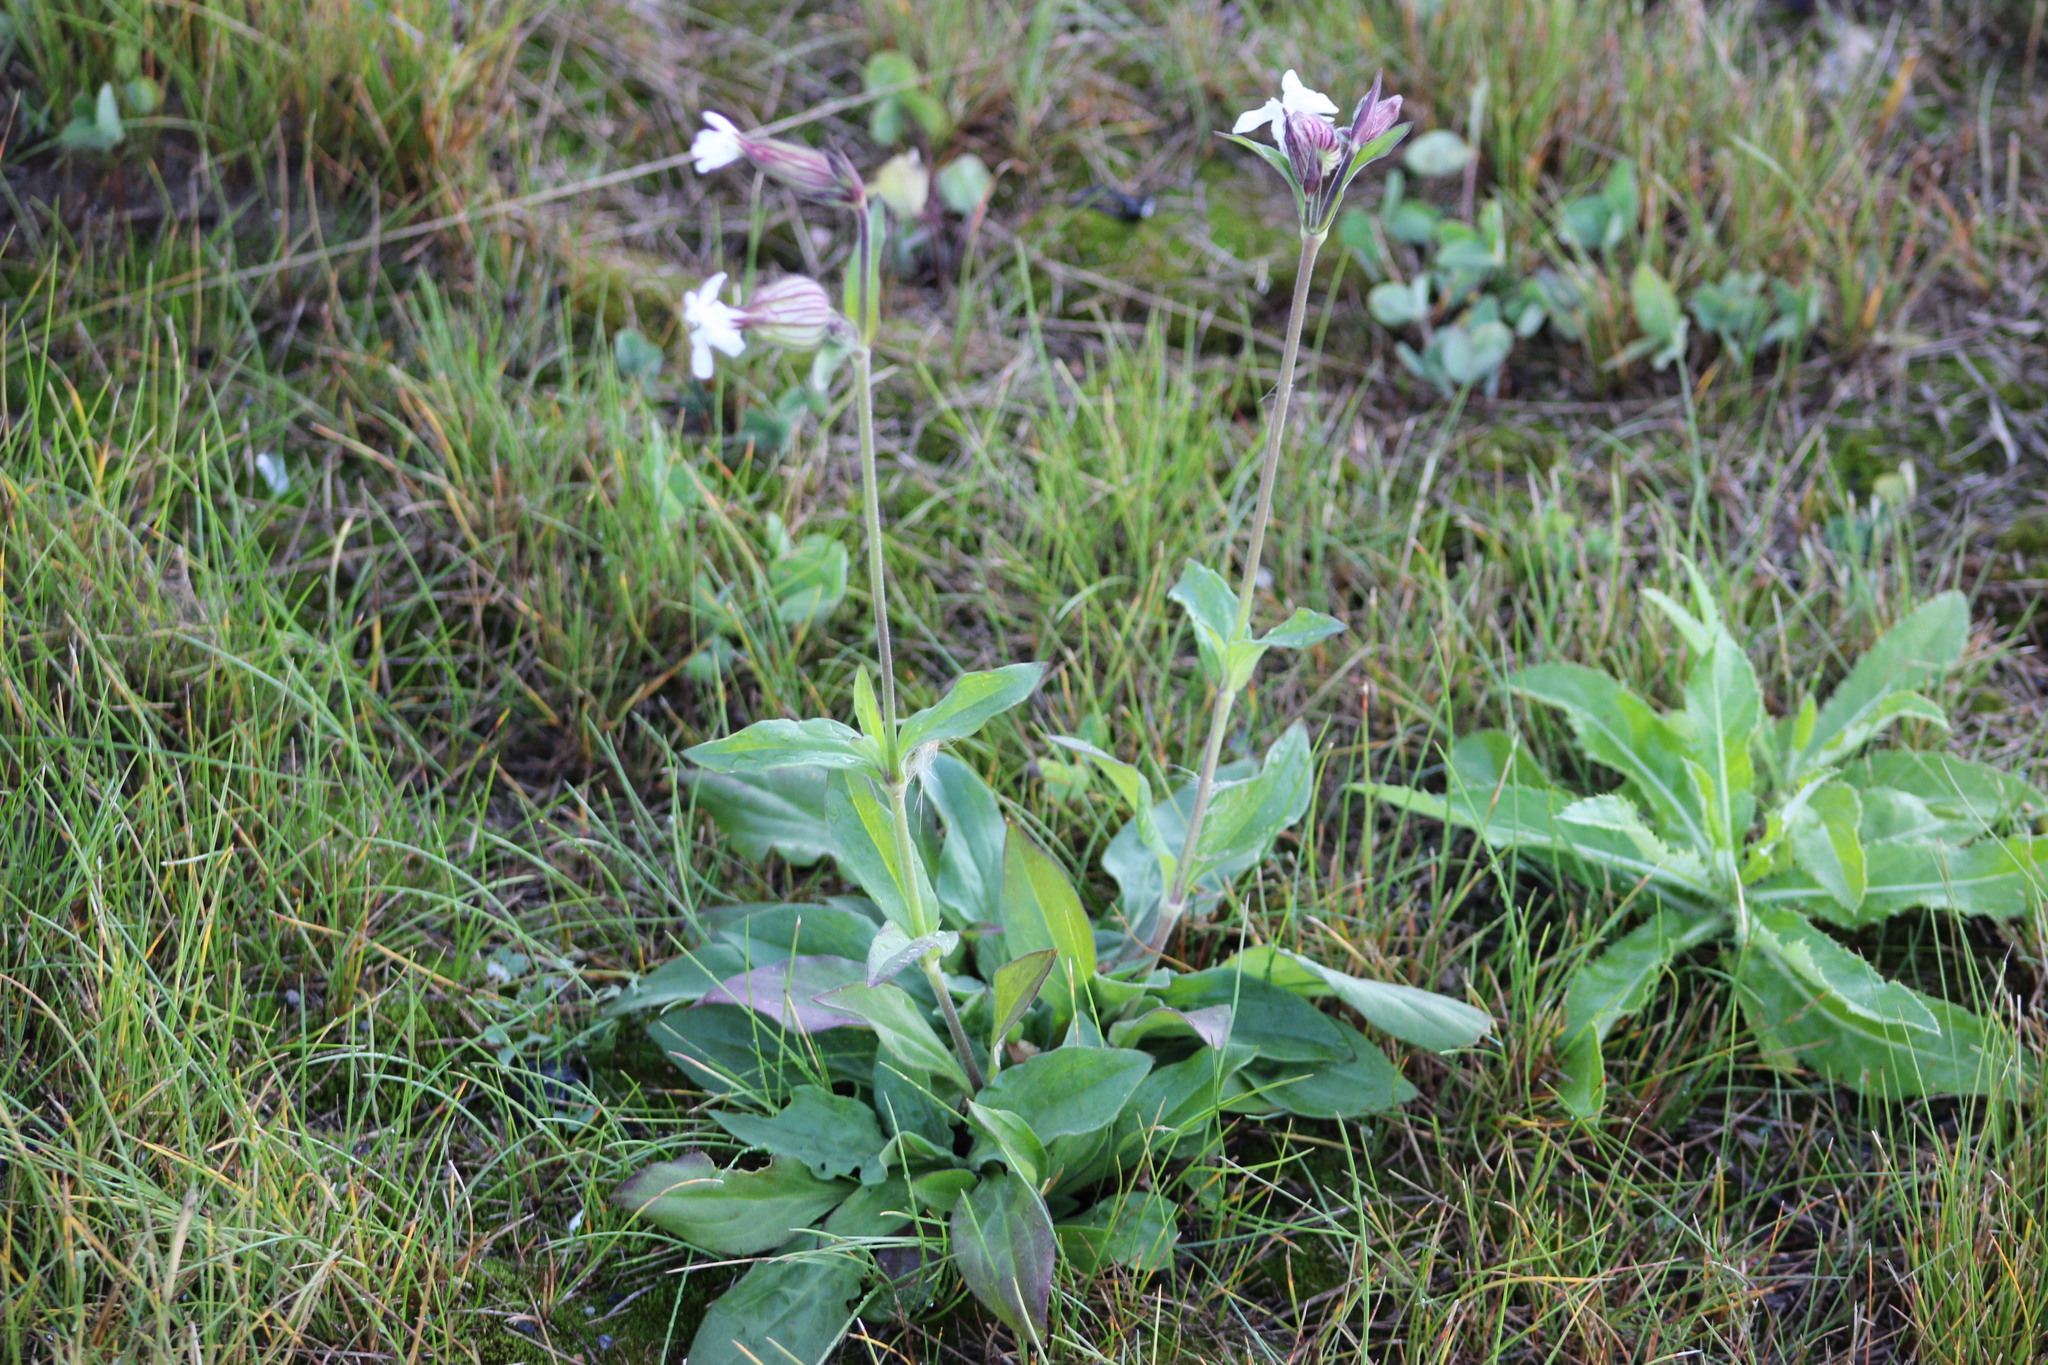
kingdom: Plantae
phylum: Tracheophyta
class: Magnoliopsida
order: Caryophyllales
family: Caryophyllaceae
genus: Silene
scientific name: Silene latifolia
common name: White campion
